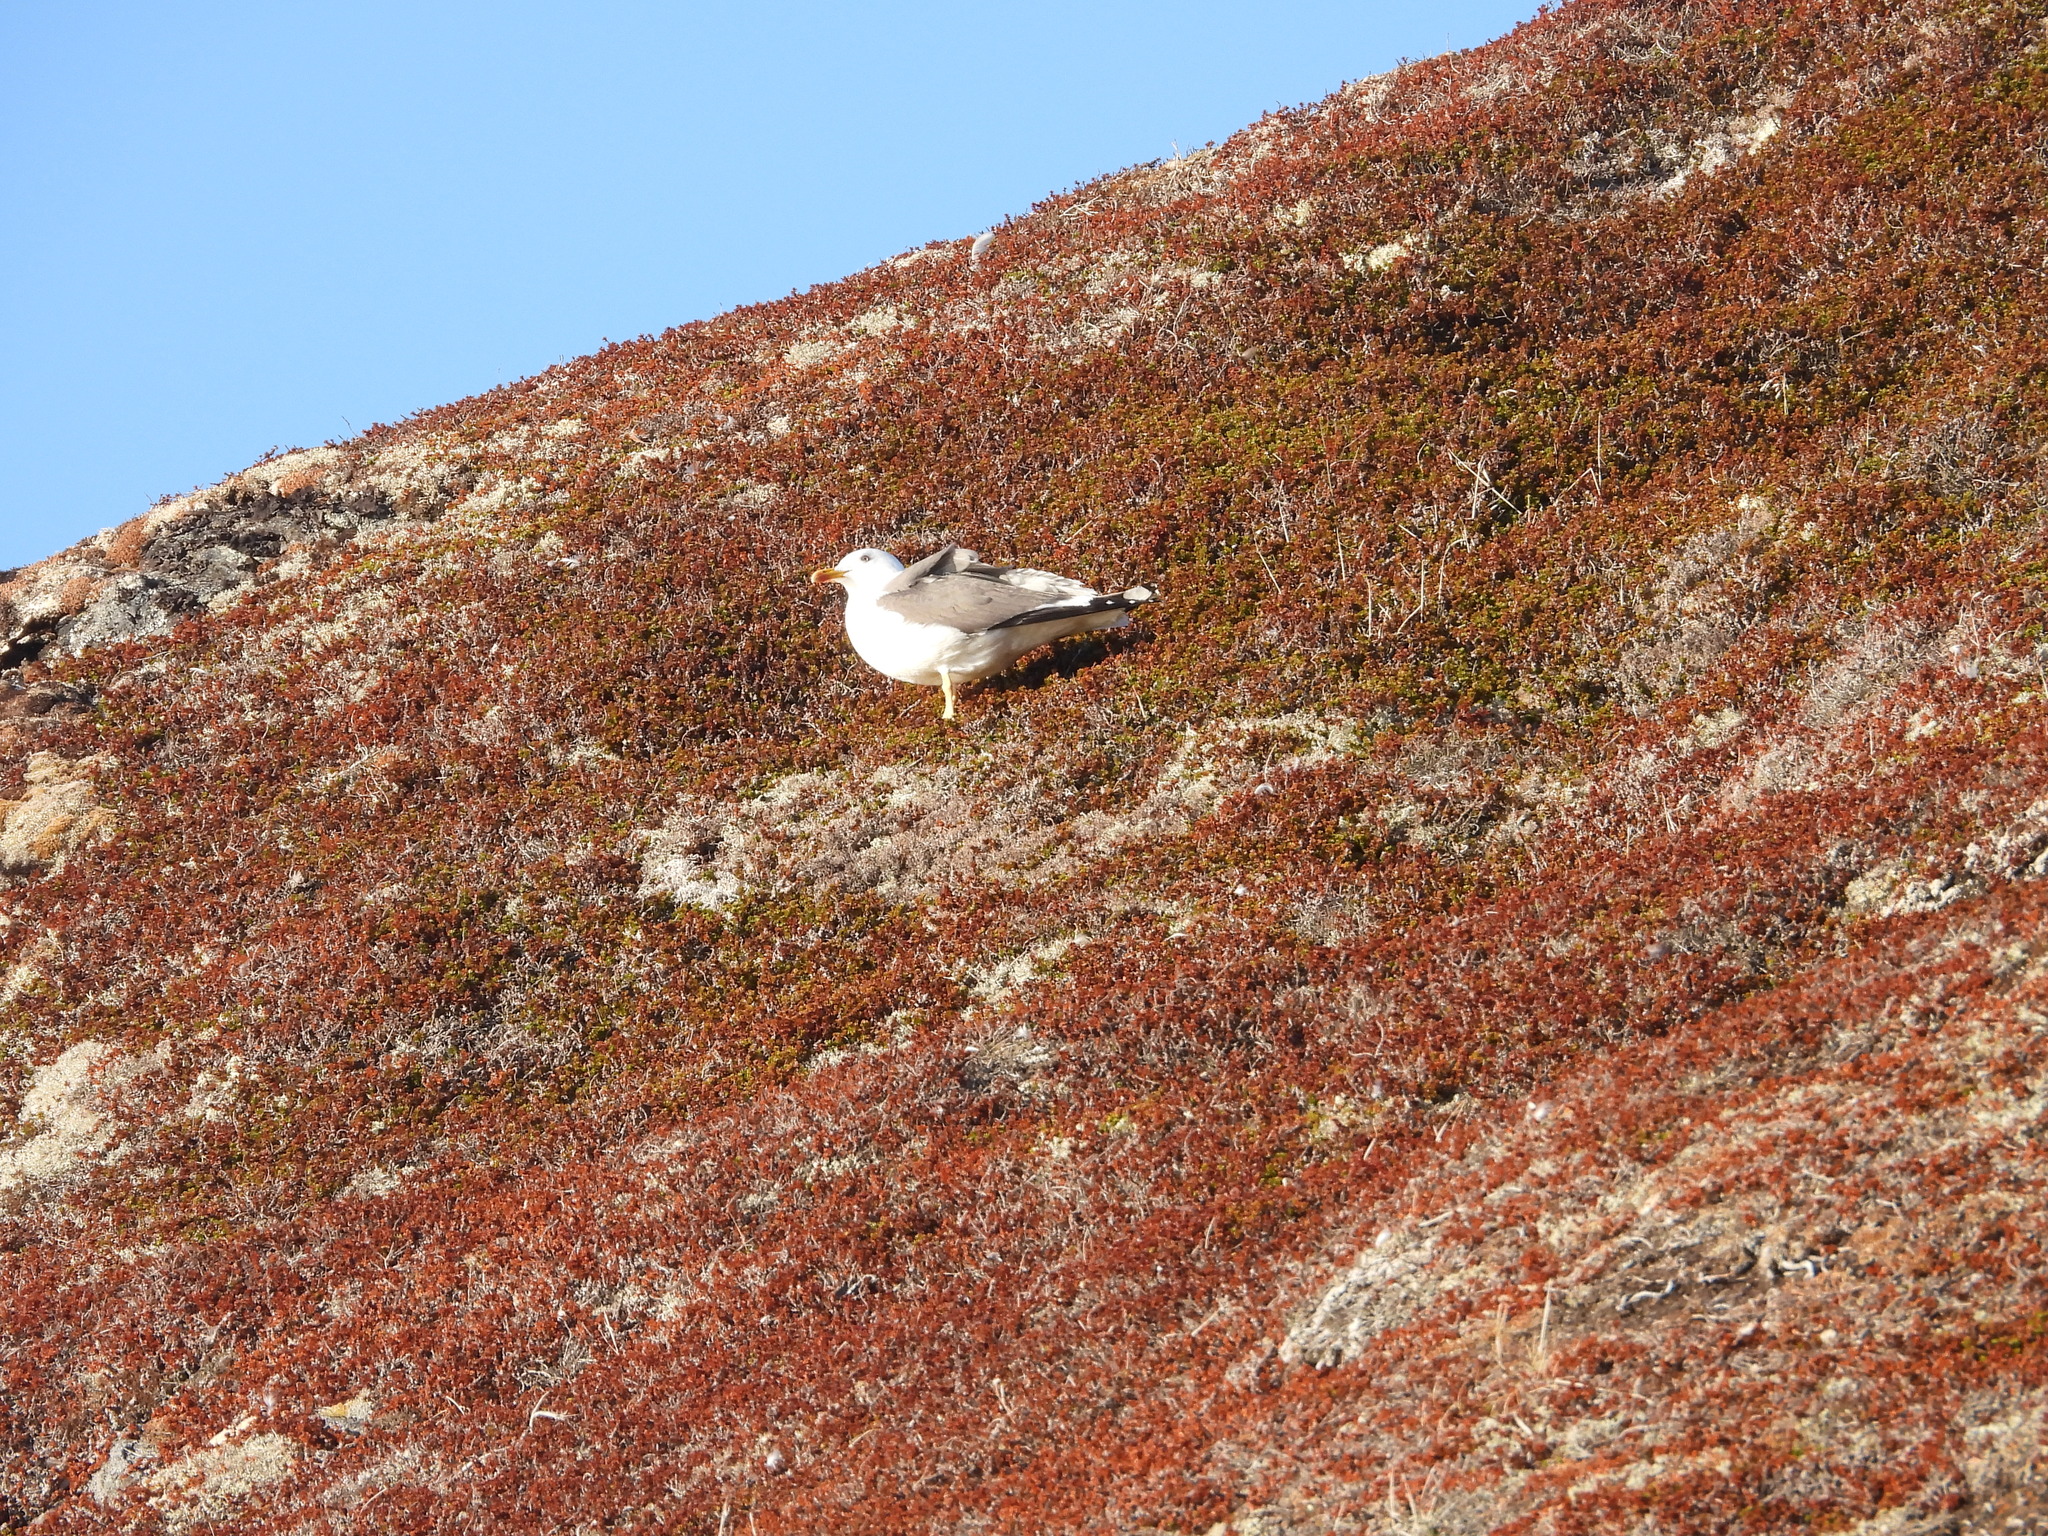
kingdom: Animalia
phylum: Chordata
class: Aves
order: Charadriiformes
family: Laridae
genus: Larus
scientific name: Larus fuscus
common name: Lesser black-backed gull
